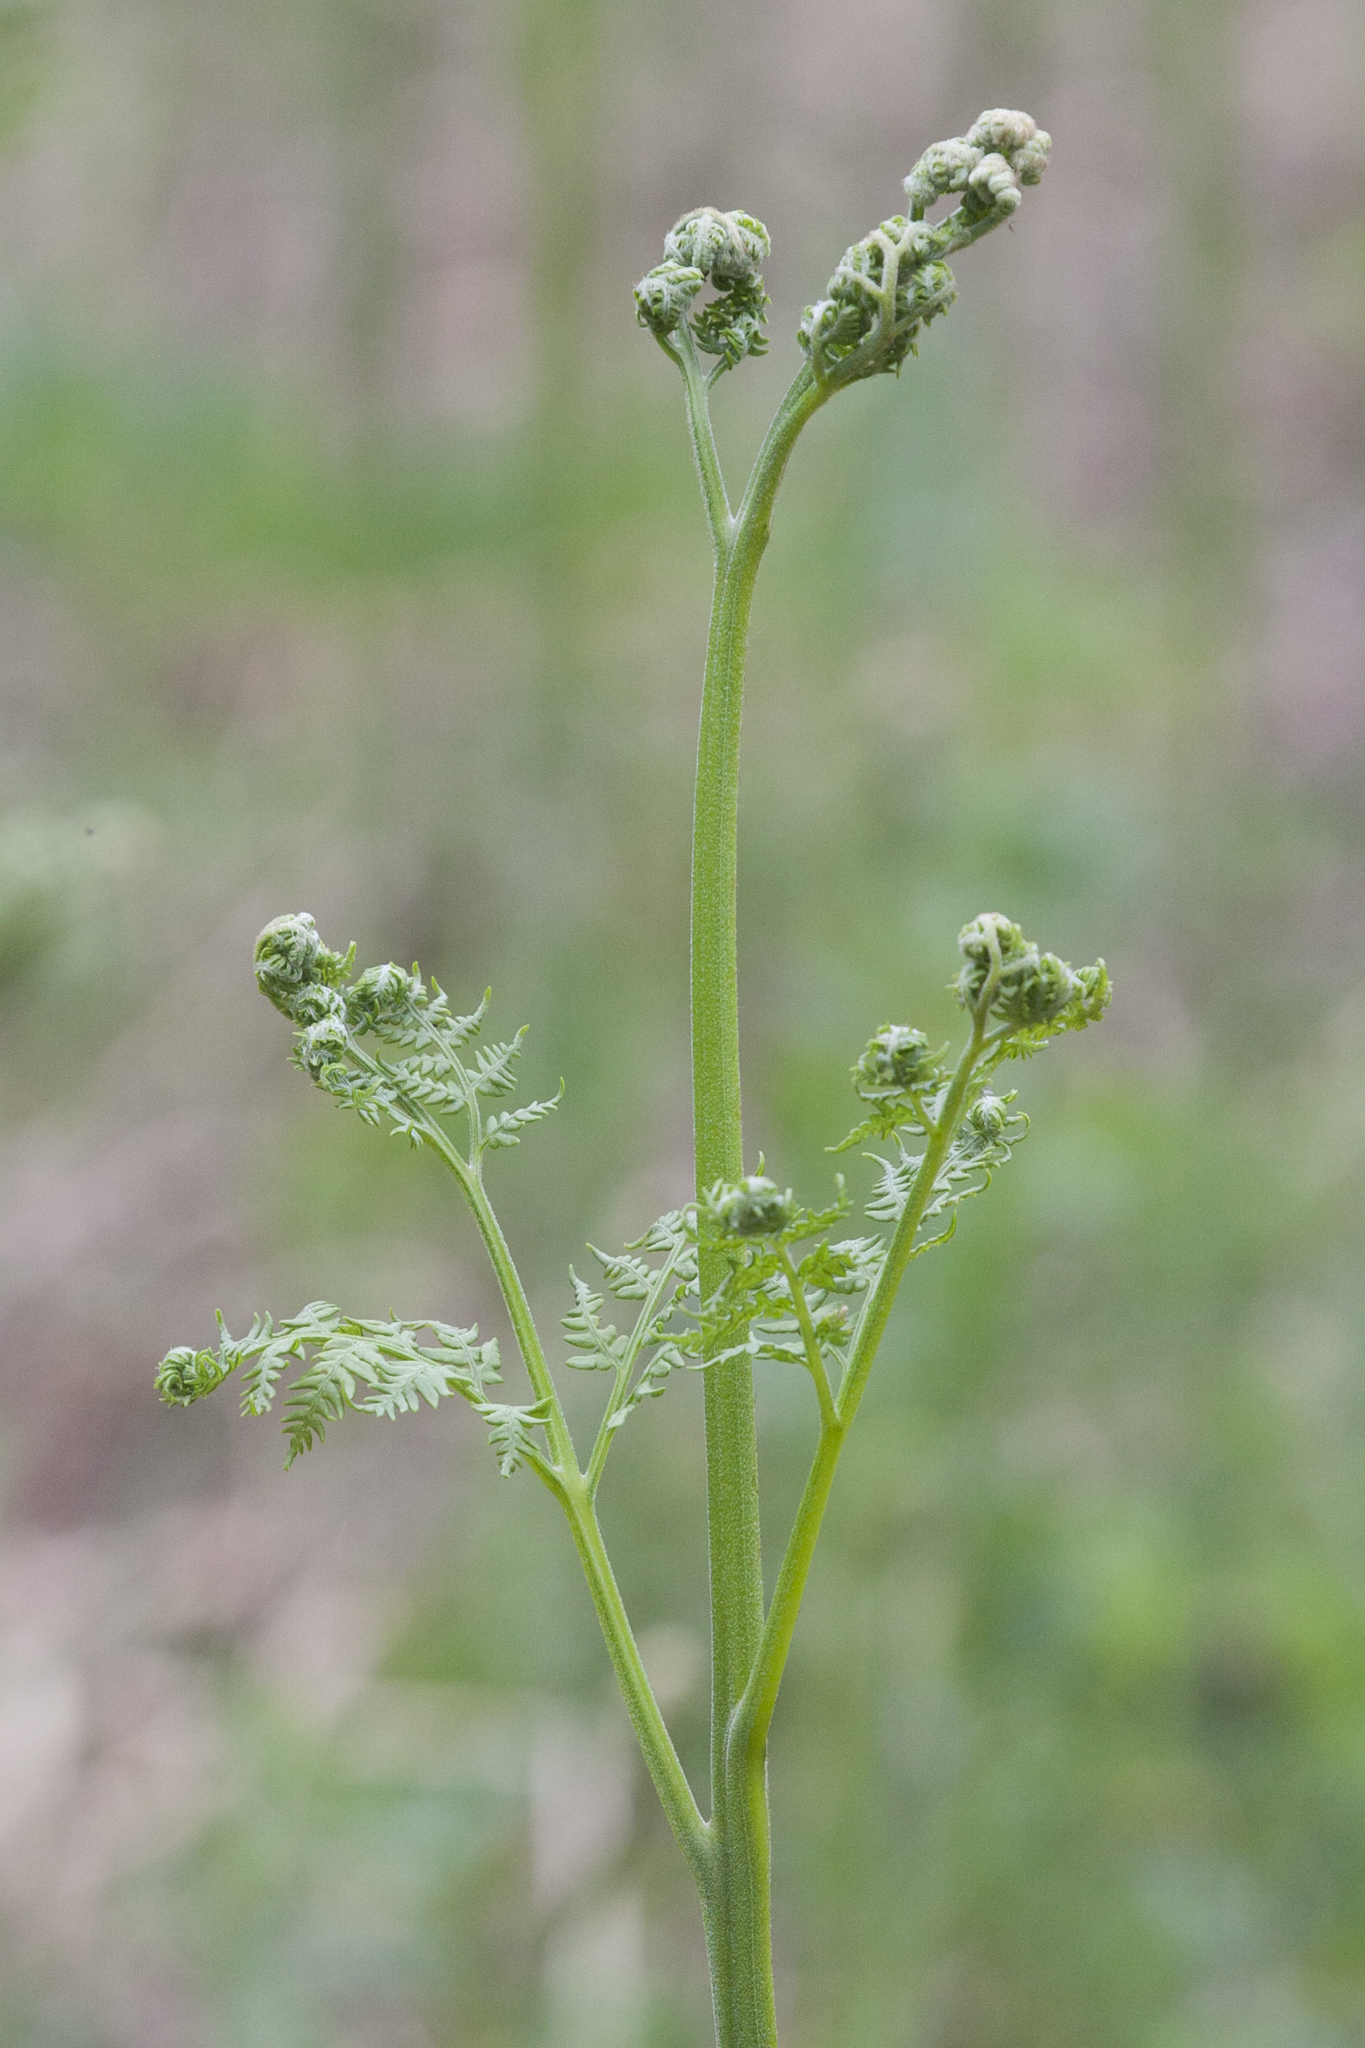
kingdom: Plantae
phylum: Tracheophyta
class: Polypodiopsida
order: Polypodiales
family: Dennstaedtiaceae
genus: Pteridium
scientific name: Pteridium aquilinum
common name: Bracken
